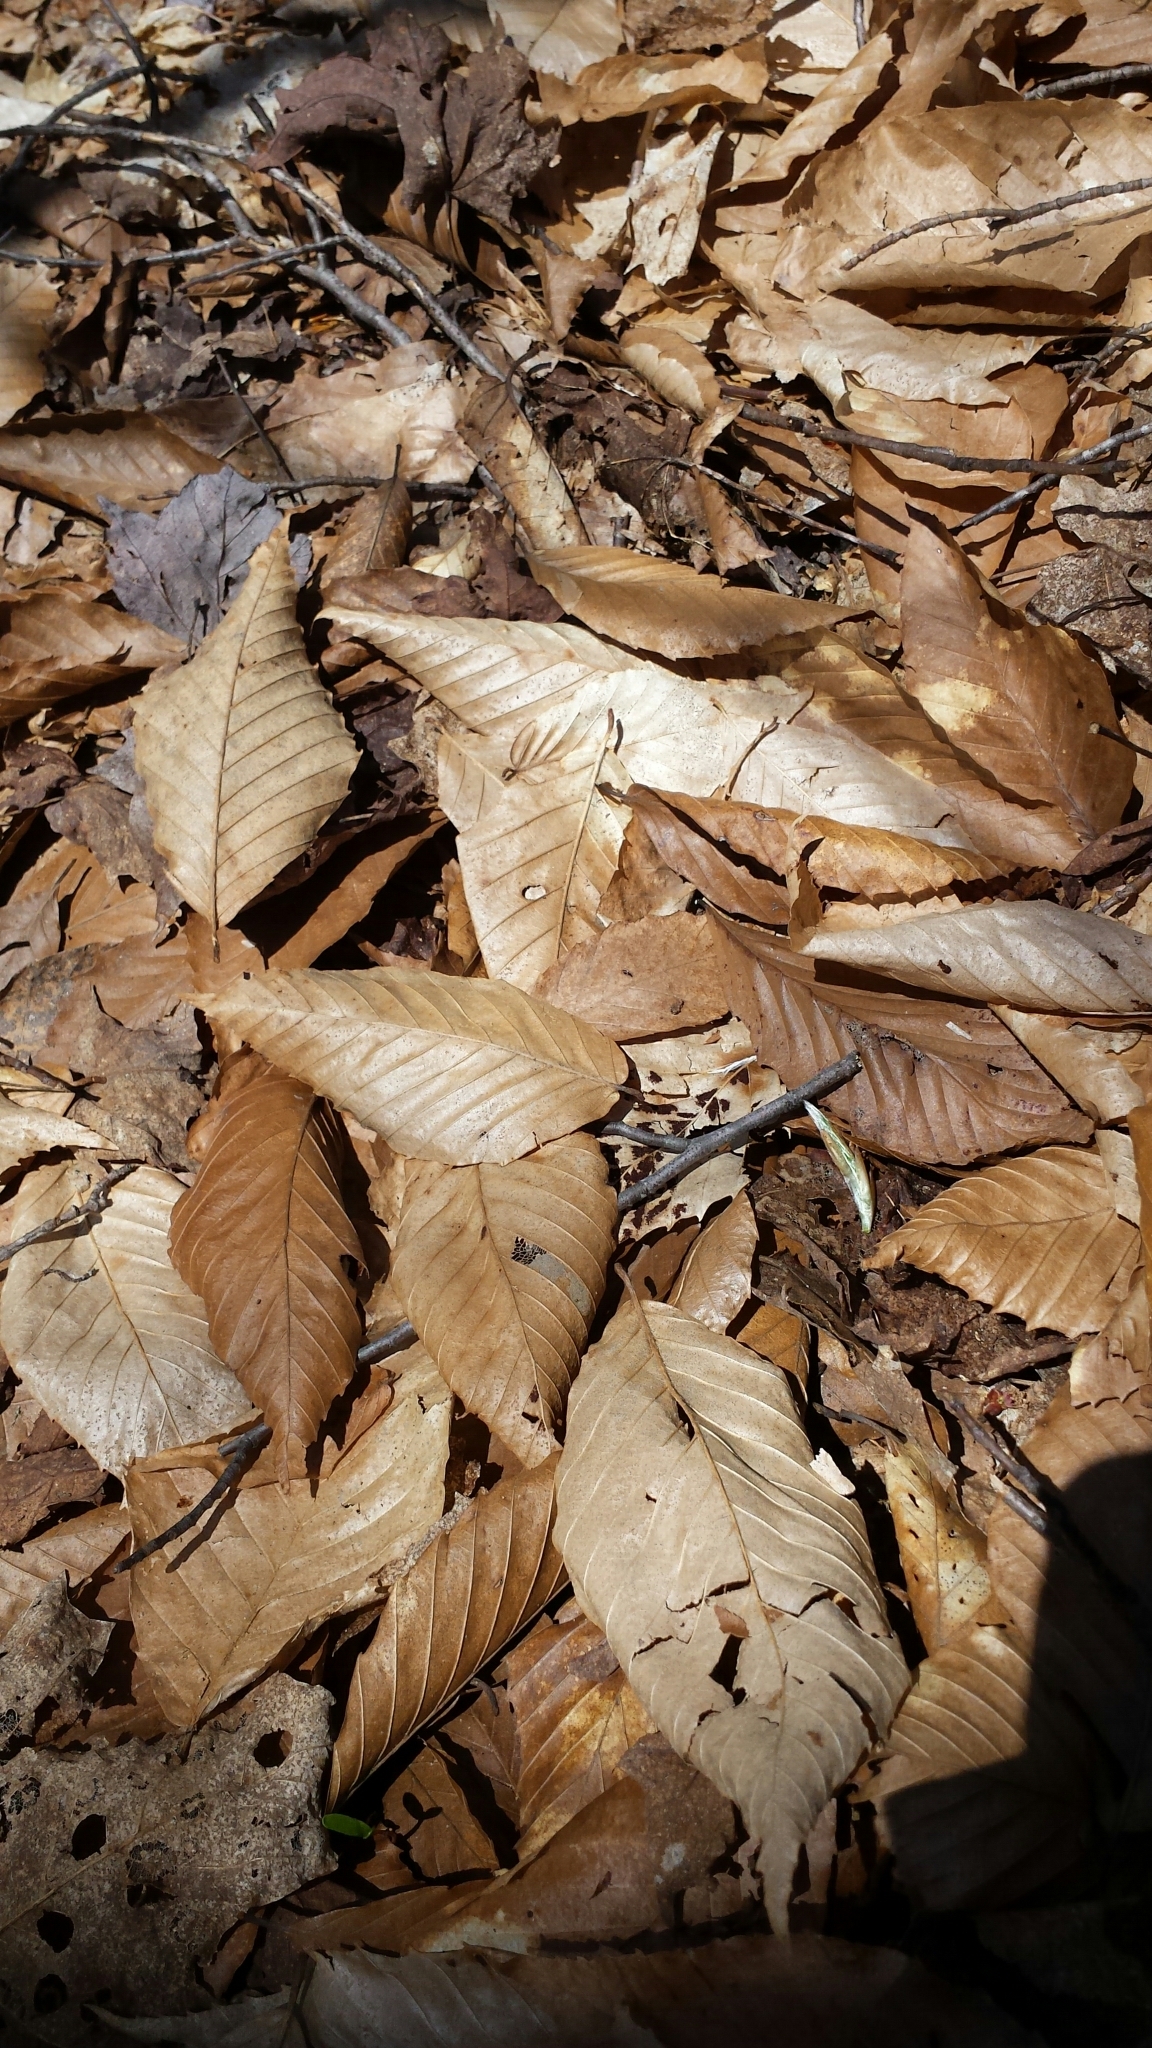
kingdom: Plantae
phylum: Tracheophyta
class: Magnoliopsida
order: Fagales
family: Fagaceae
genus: Fagus
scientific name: Fagus grandifolia
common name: American beech
